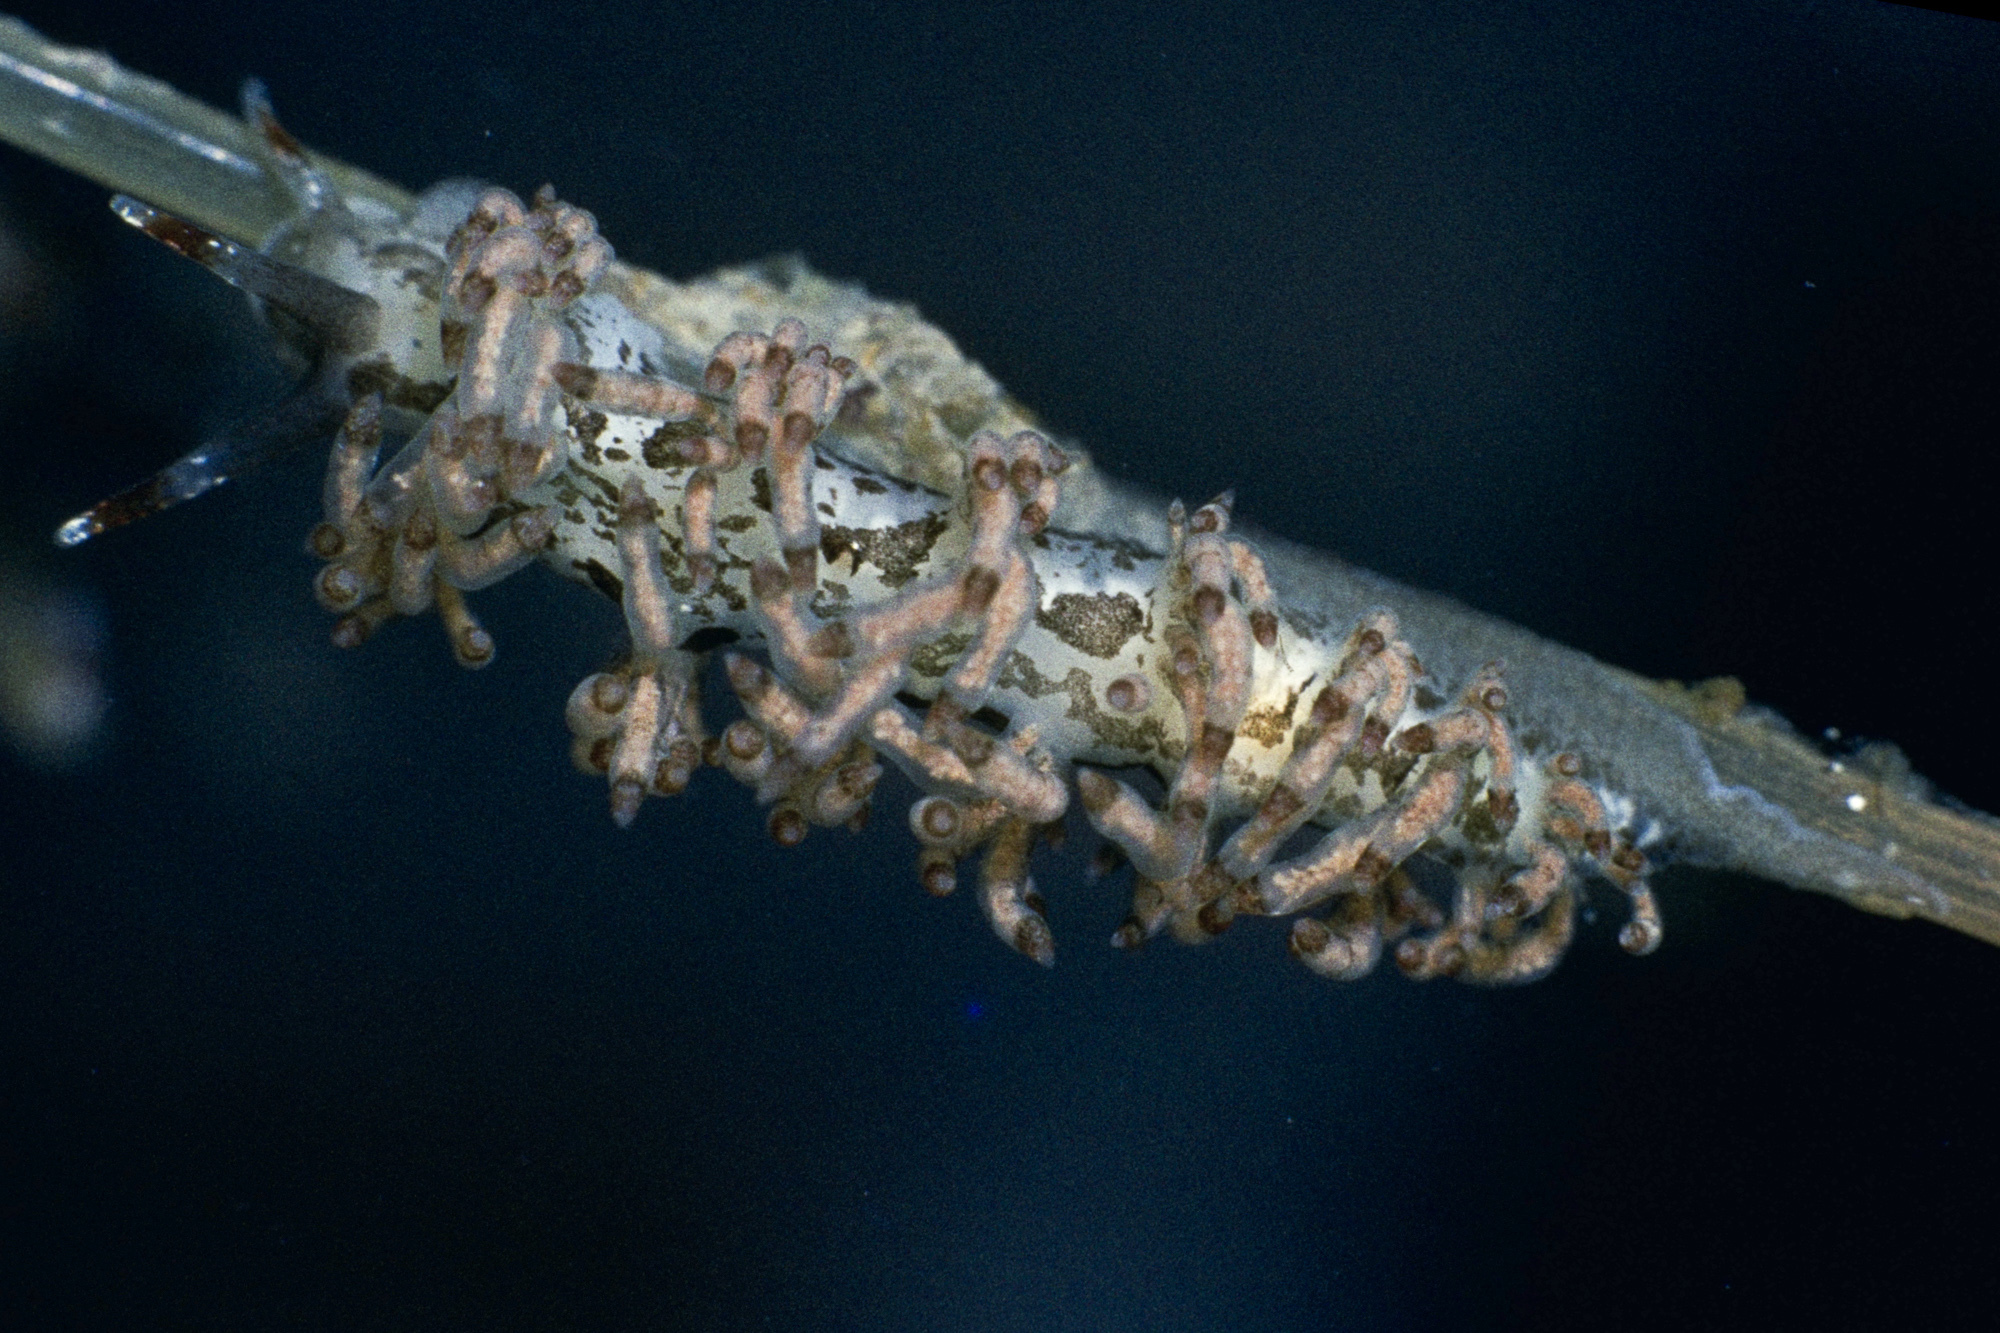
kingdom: Animalia
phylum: Mollusca
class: Gastropoda
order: Nudibranchia
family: Eubranchidae
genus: Eubranchus
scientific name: Eubranchus vittatus
